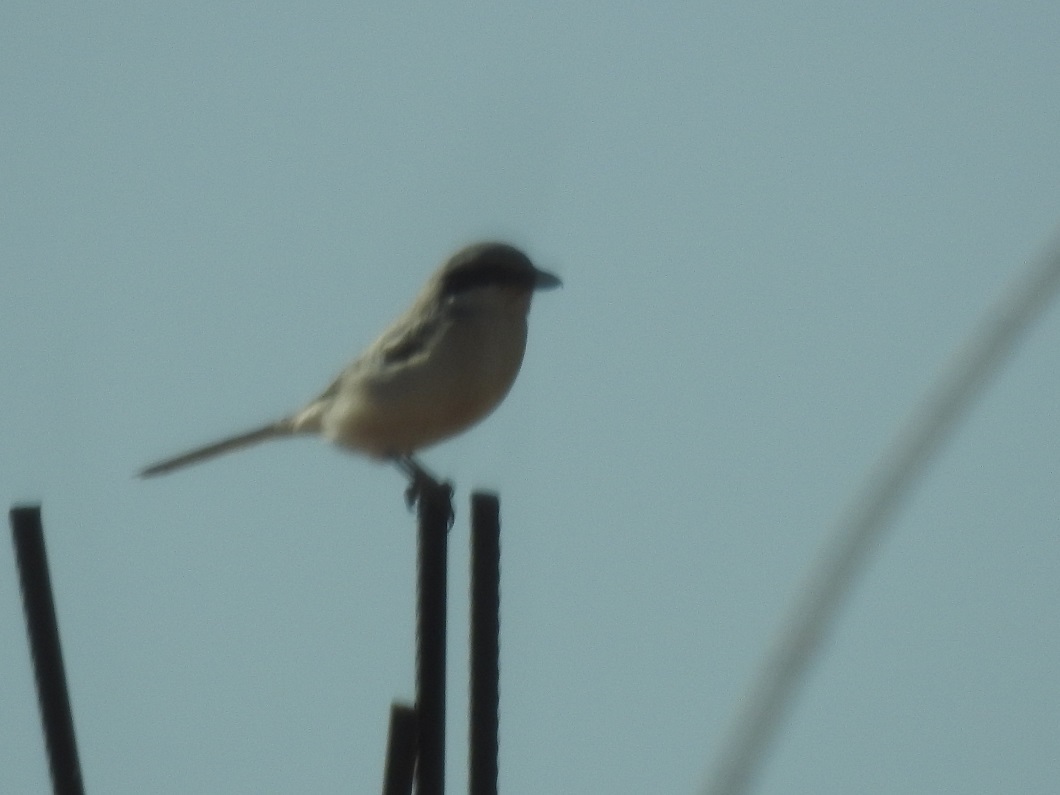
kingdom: Animalia
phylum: Chordata
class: Aves
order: Passeriformes
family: Laniidae
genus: Lanius
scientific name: Lanius excubitor
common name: Great grey shrike
